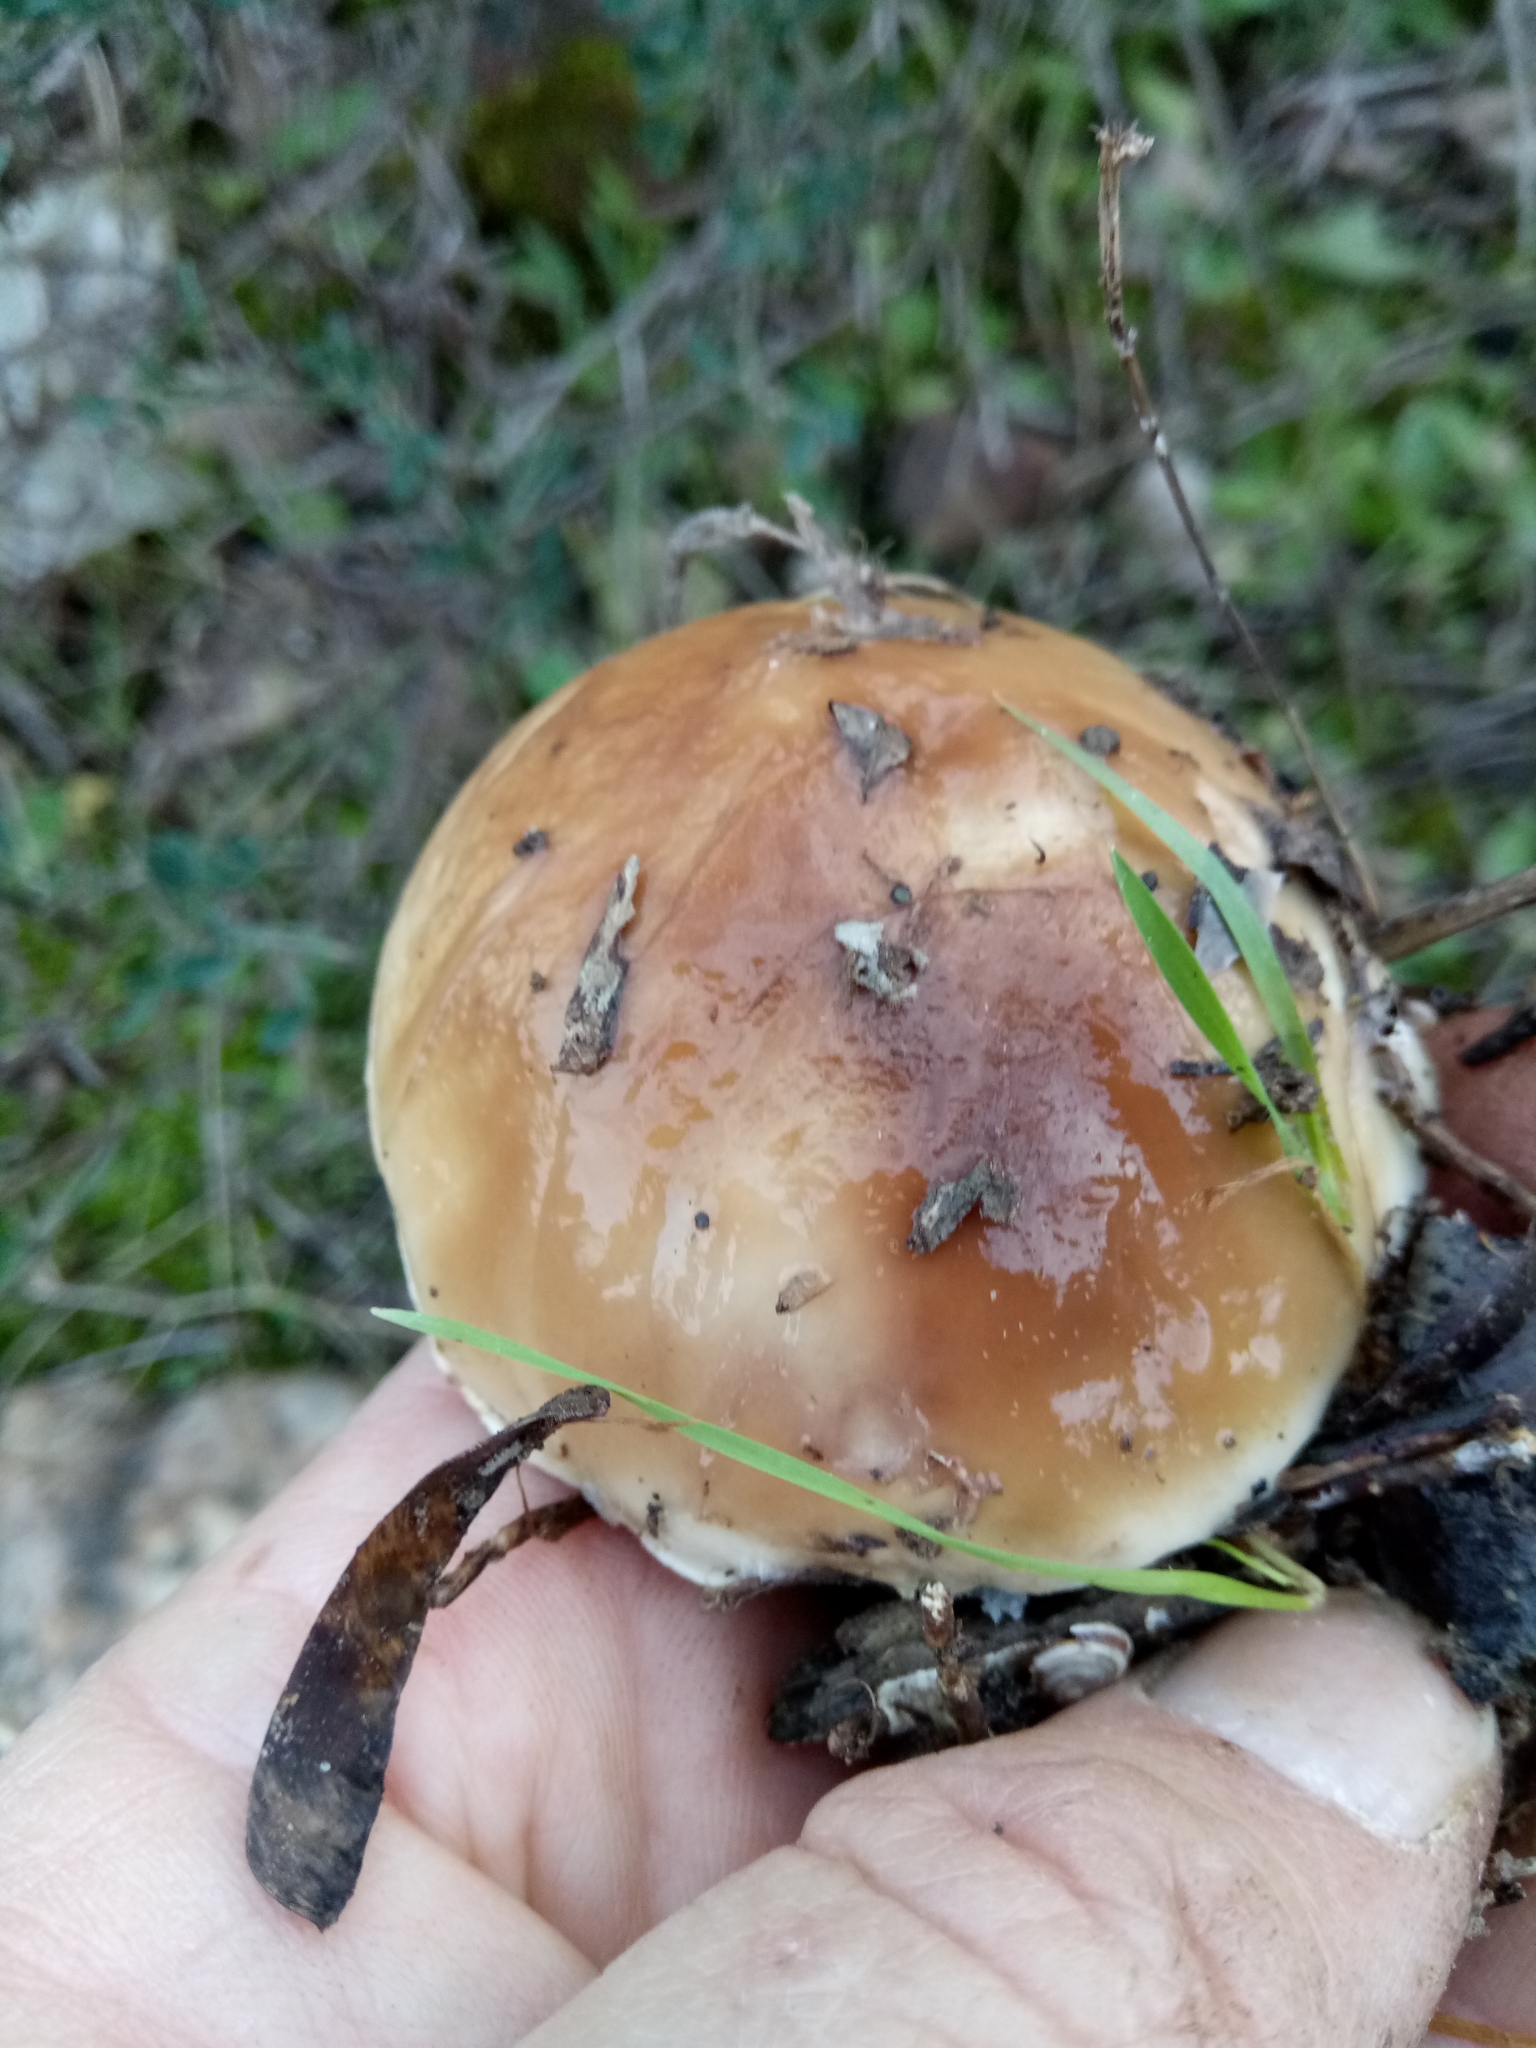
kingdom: Fungi
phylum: Basidiomycota
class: Agaricomycetes
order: Boletales
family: Suillaceae
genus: Suillus
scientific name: Suillus bellinii
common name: Champagne bolete
